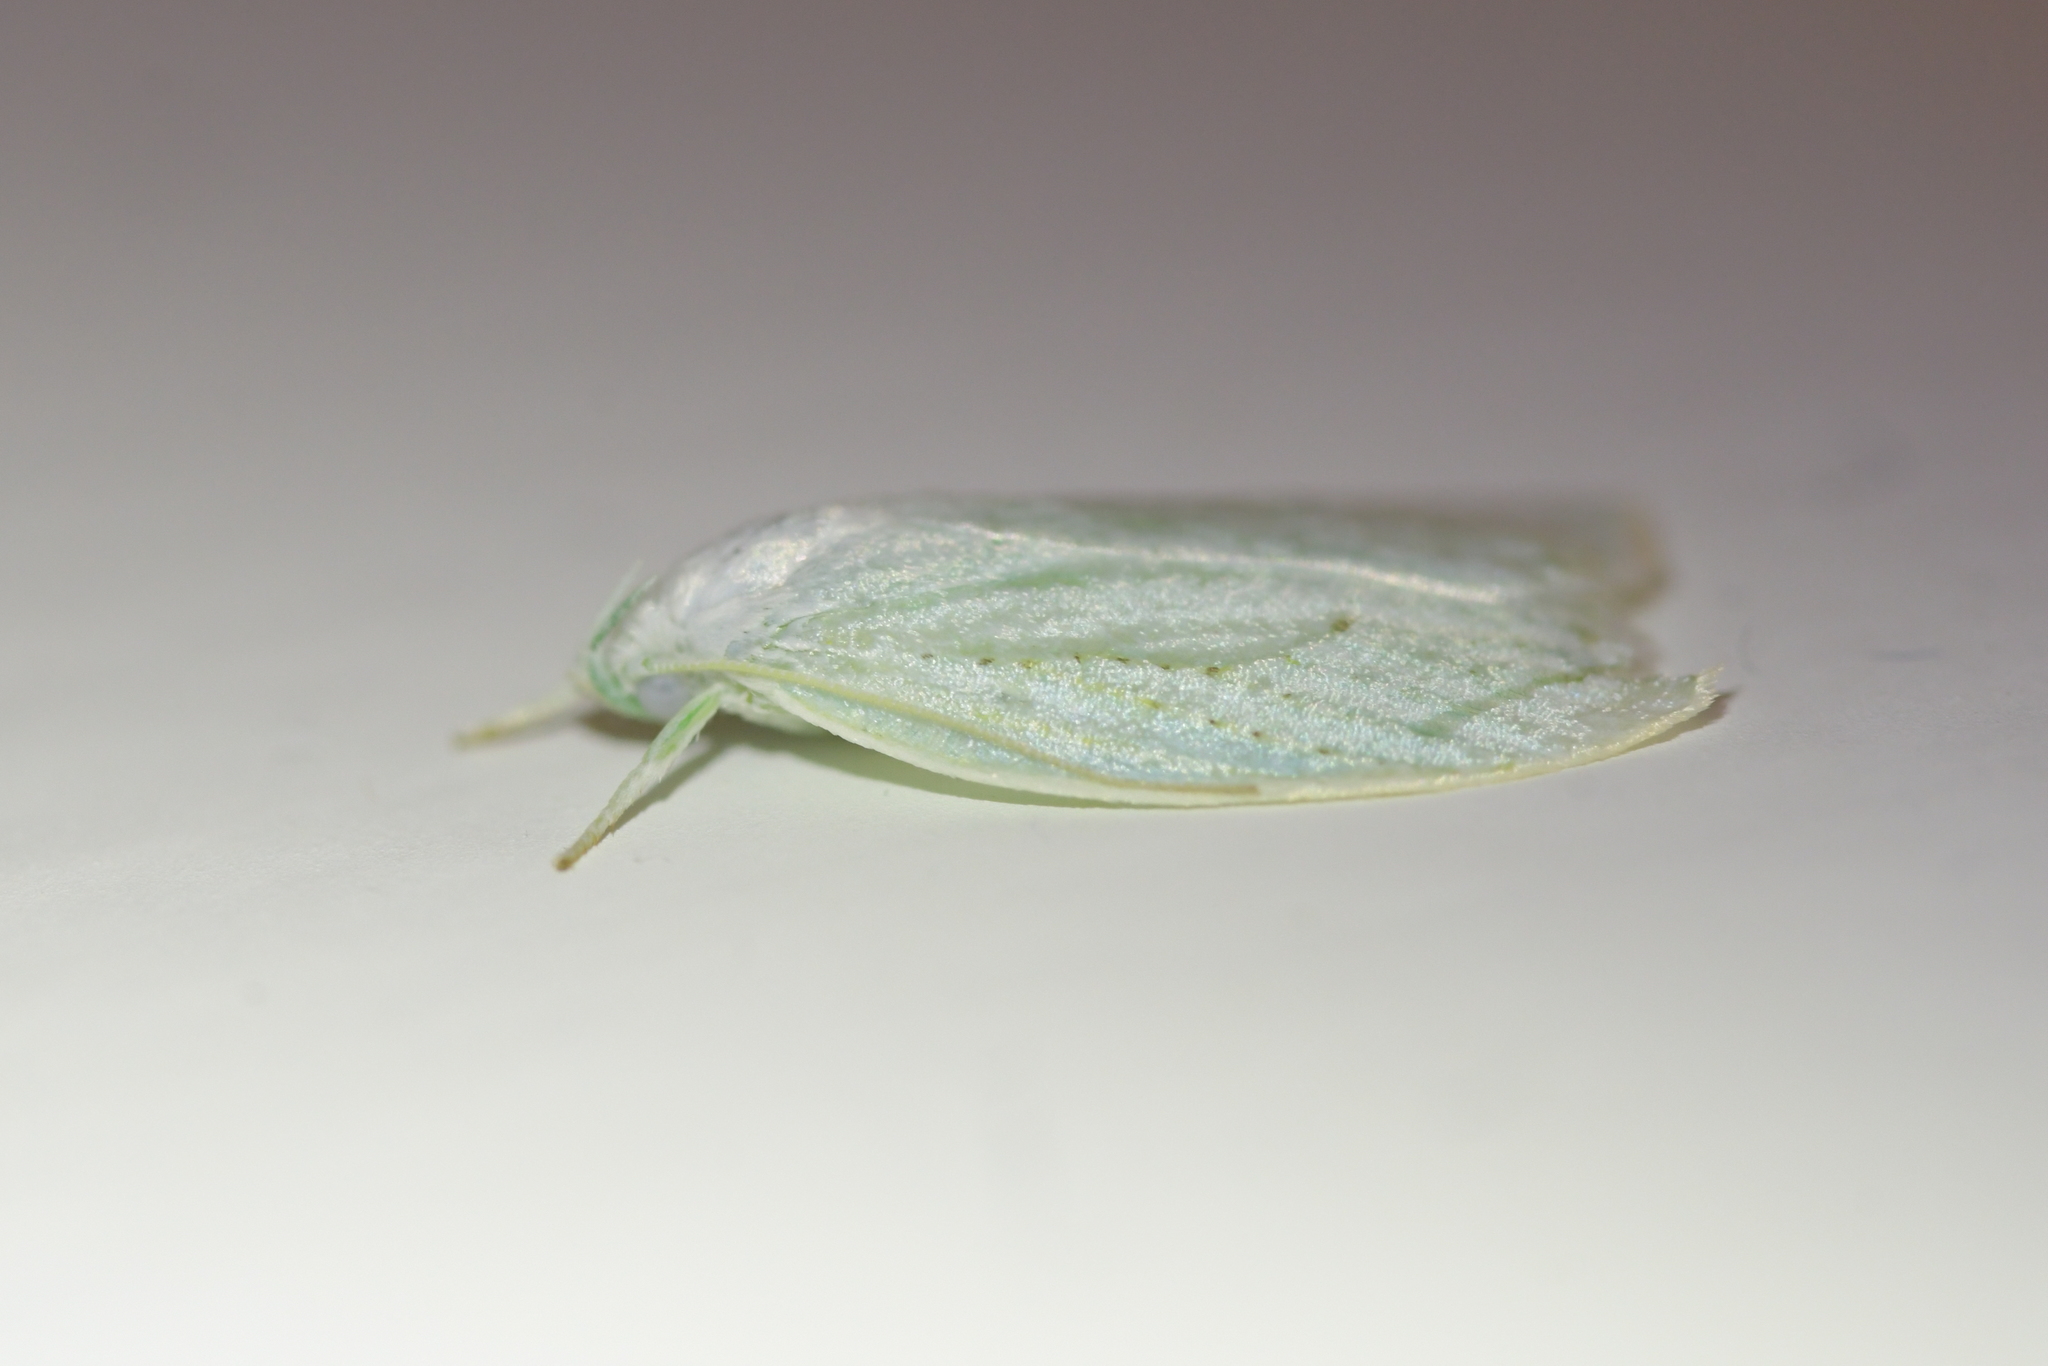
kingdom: Animalia
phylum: Arthropoda
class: Insecta
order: Lepidoptera
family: Oecophoridae
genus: Nymphostola
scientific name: Nymphostola galactina
